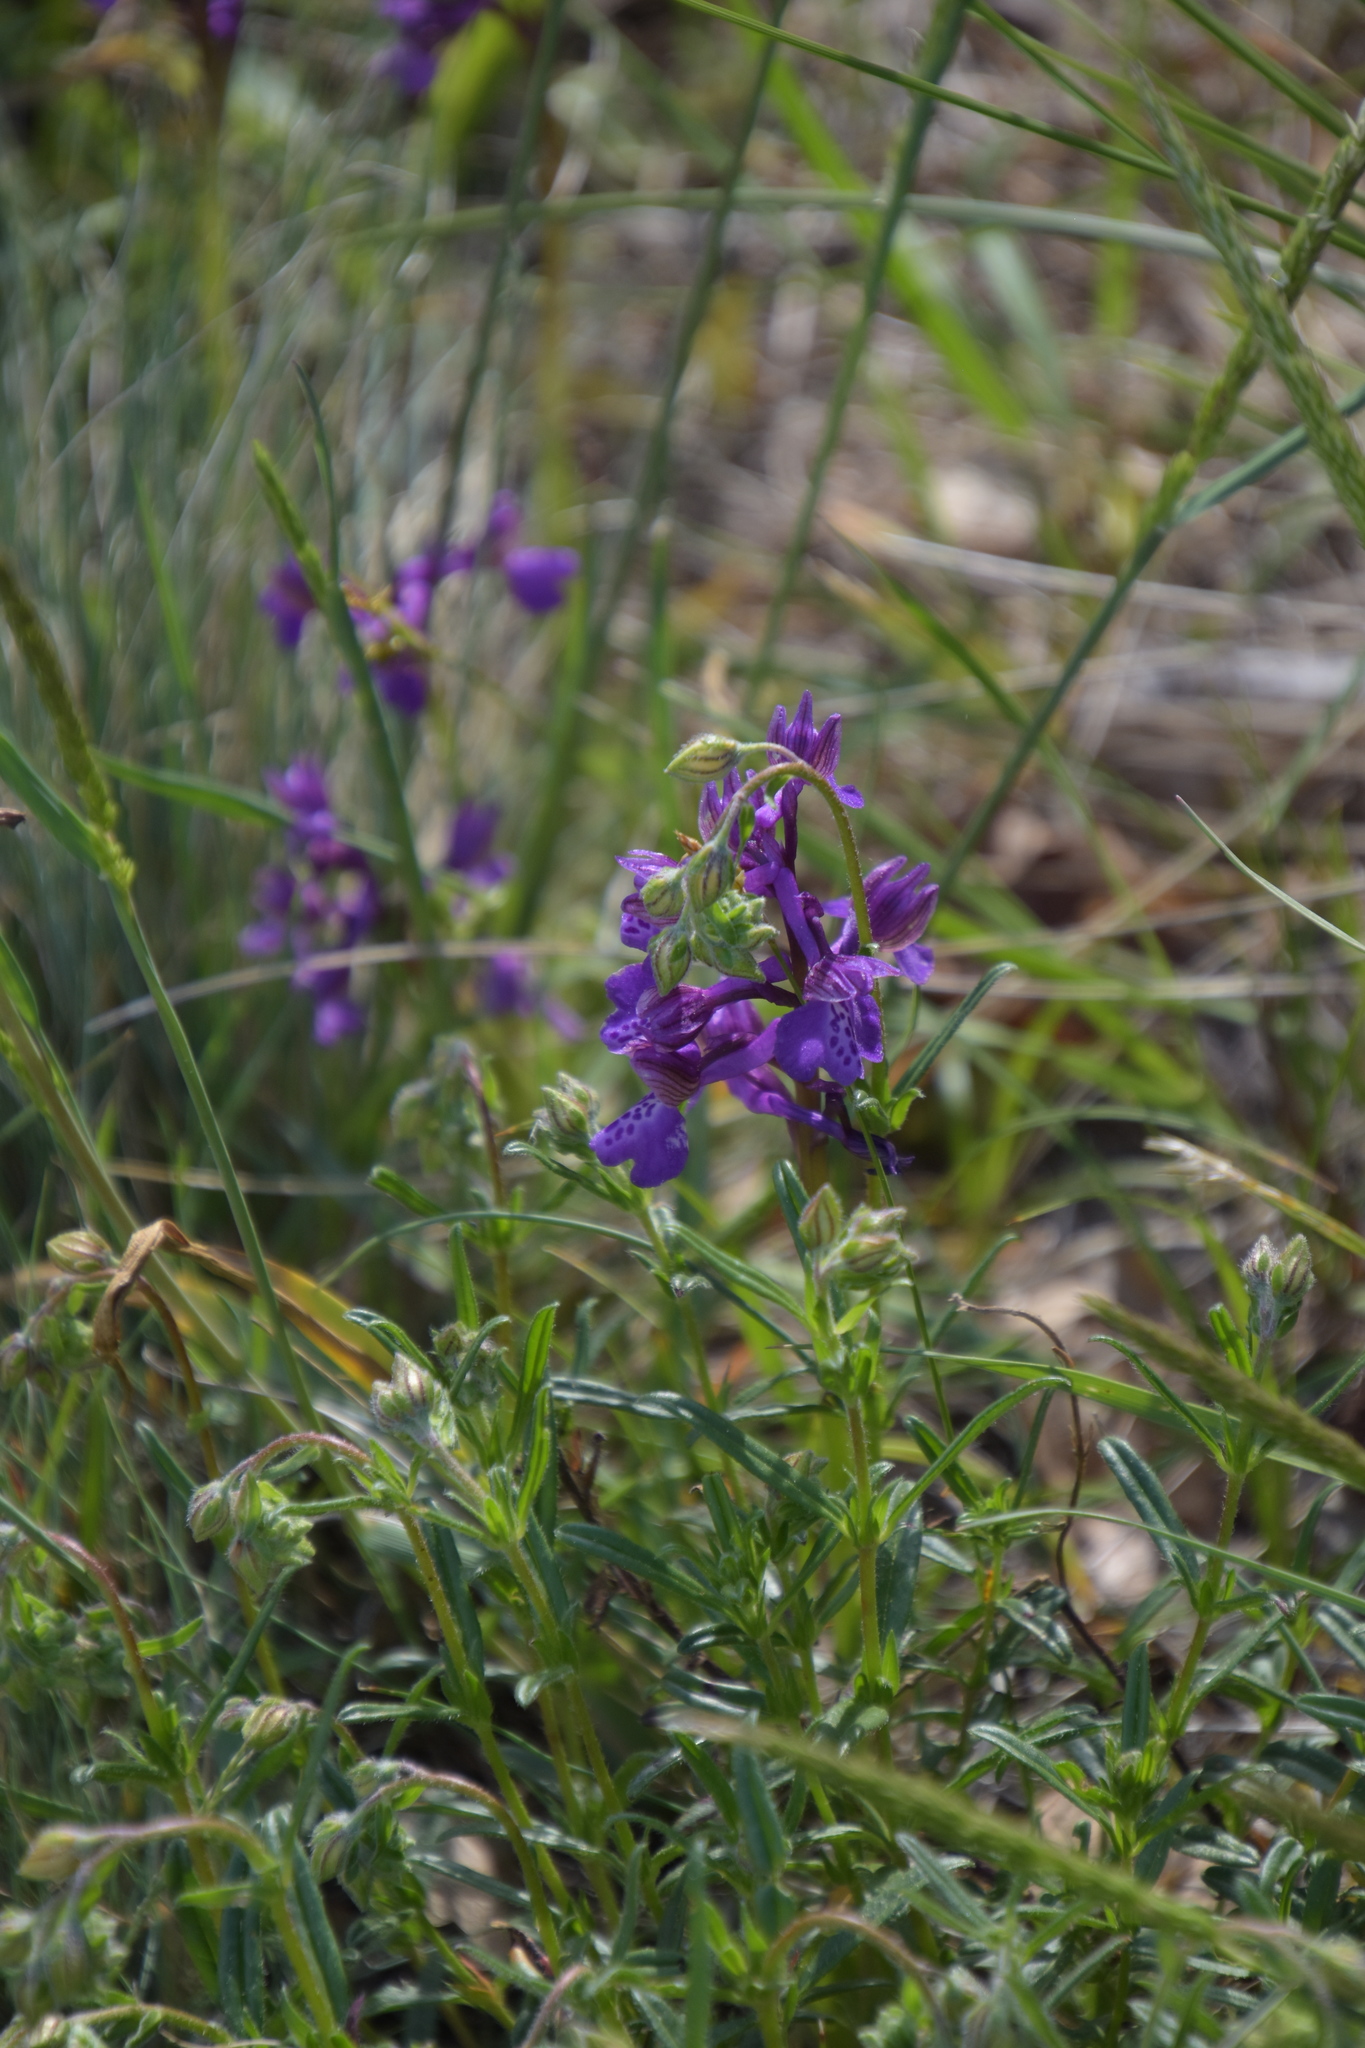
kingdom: Plantae
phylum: Tracheophyta
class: Liliopsida
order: Asparagales
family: Orchidaceae
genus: Anacamptis
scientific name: Anacamptis morio
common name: Green-winged orchid
